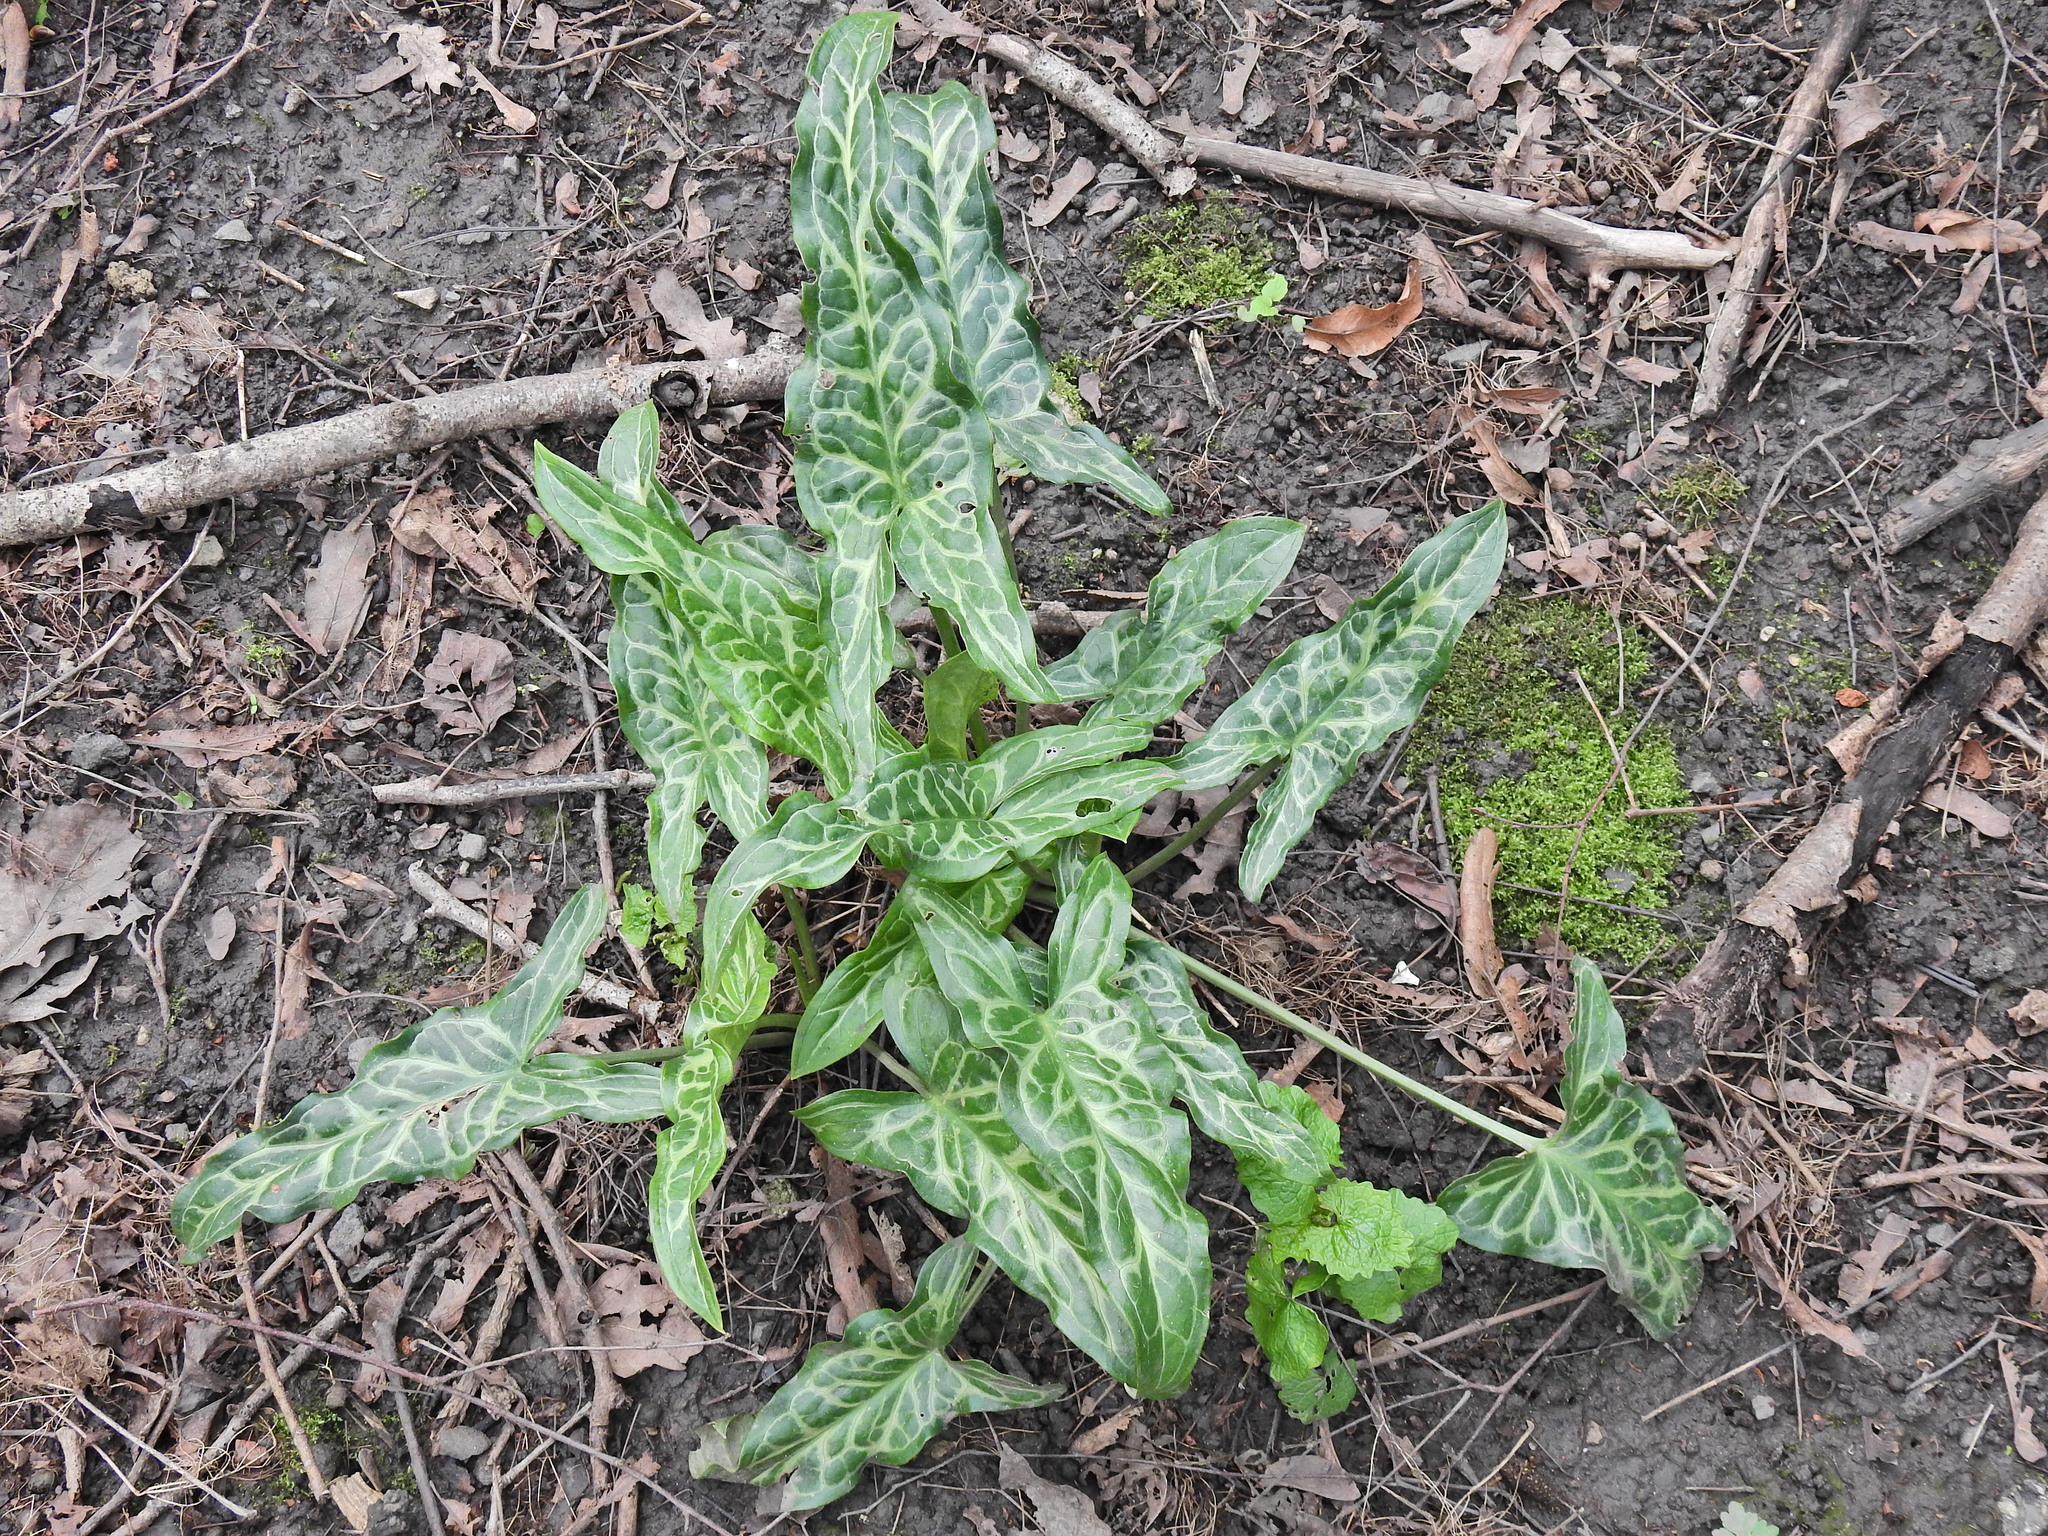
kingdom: Plantae
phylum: Tracheophyta
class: Liliopsida
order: Alismatales
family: Araceae
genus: Arum
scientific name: Arum italicum
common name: Italian lords-and-ladies
